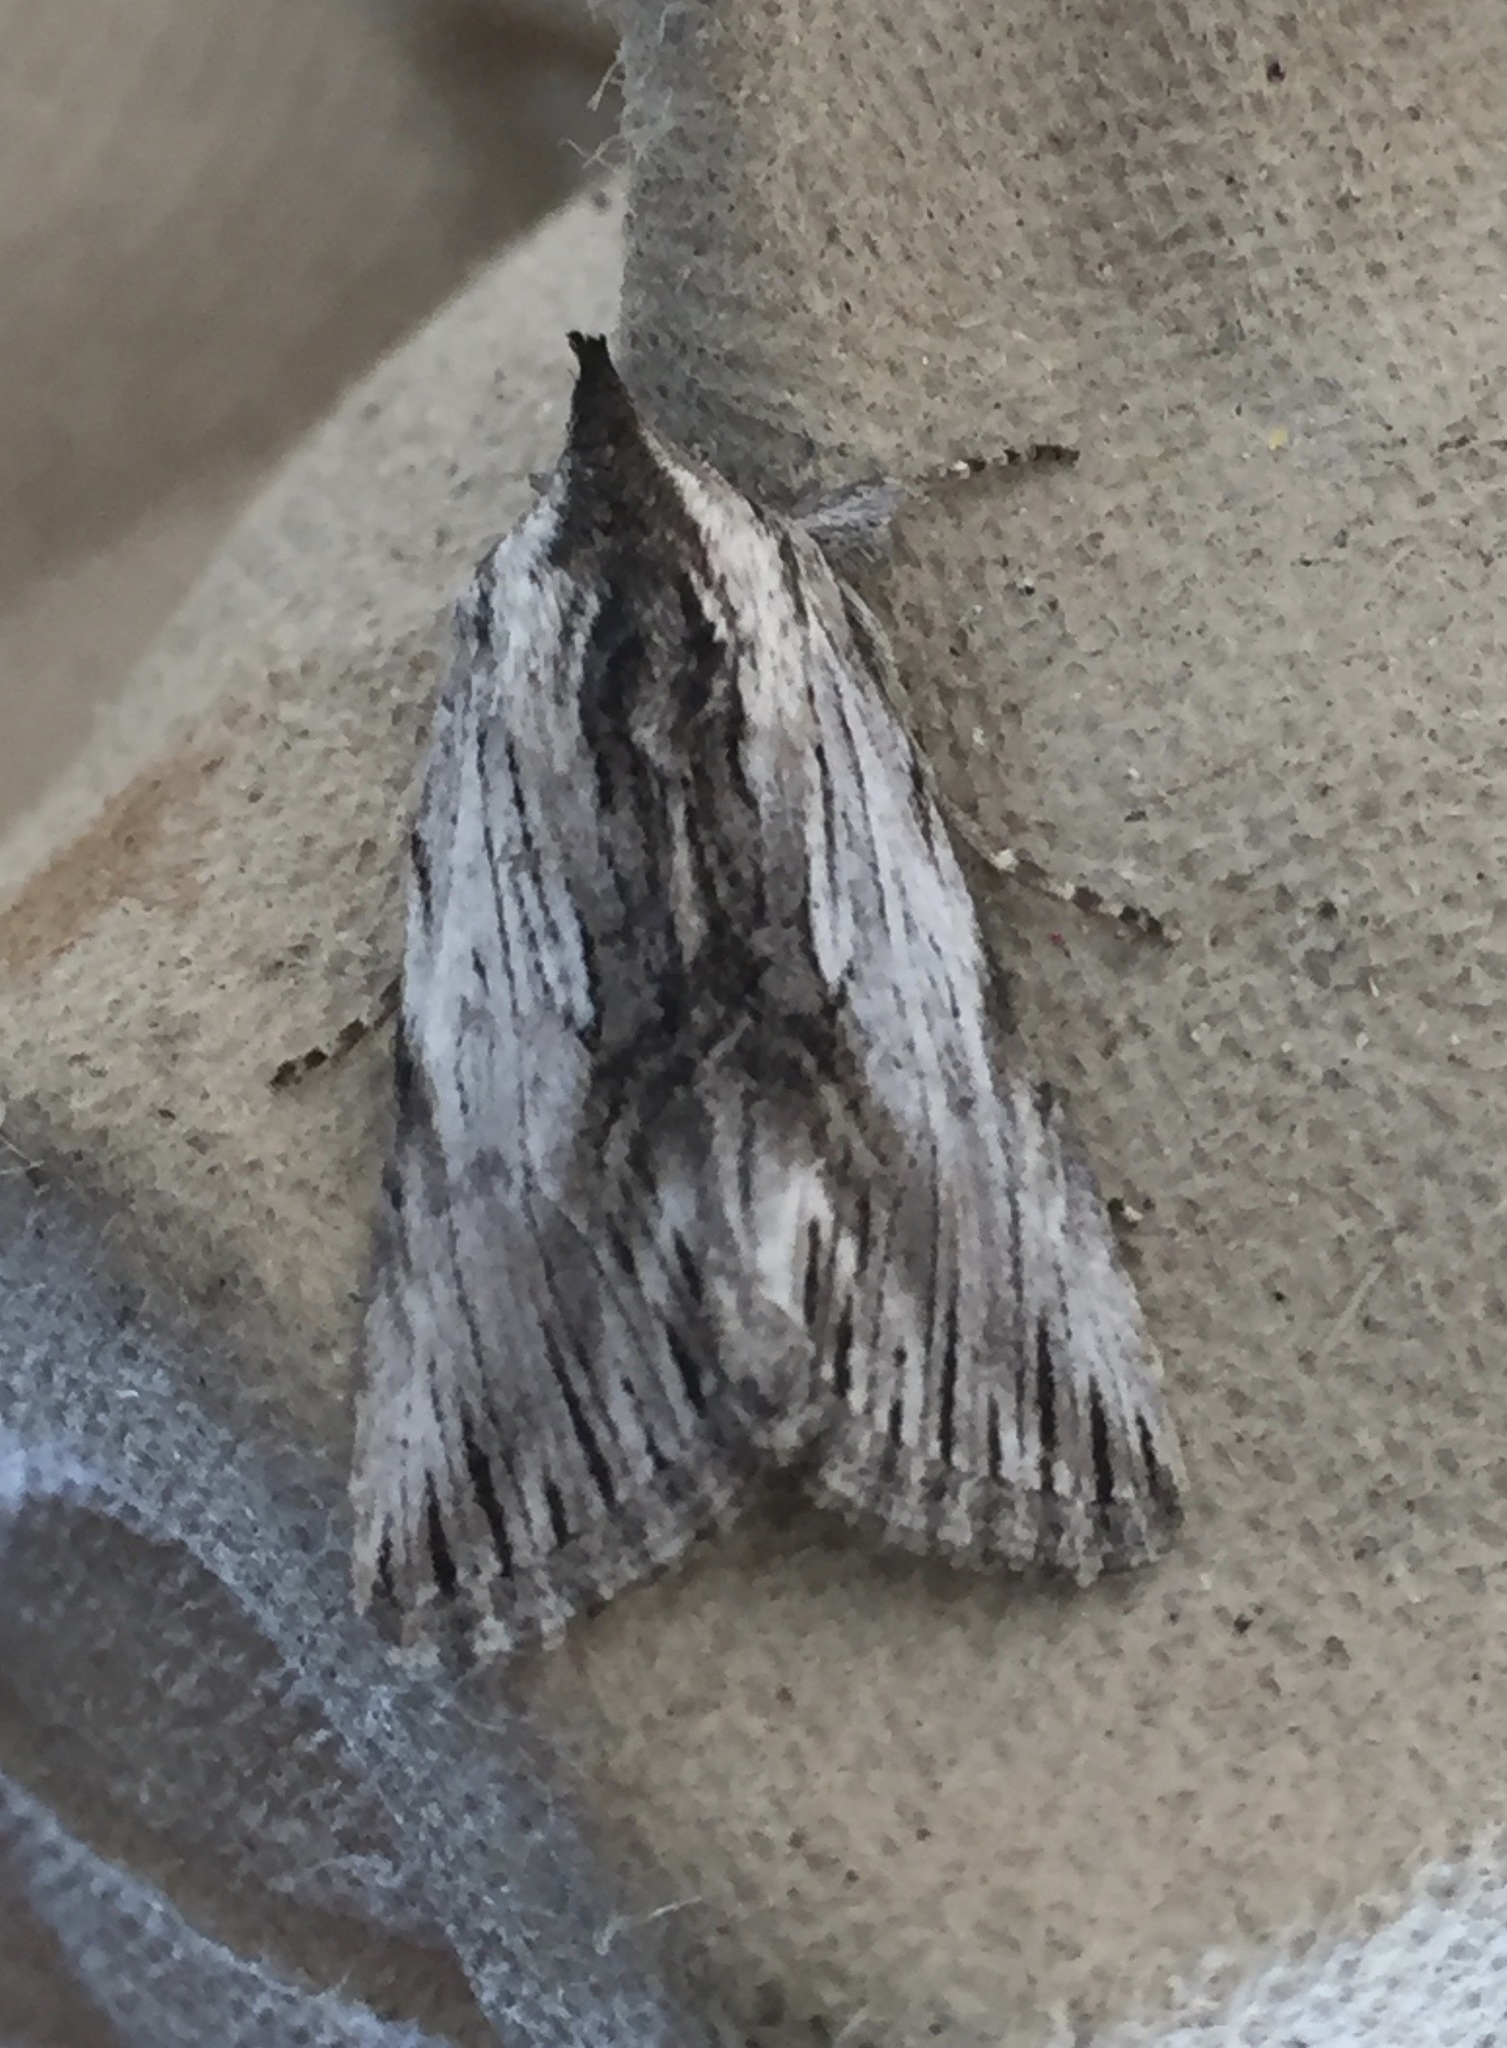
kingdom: Animalia
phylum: Arthropoda
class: Insecta
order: Lepidoptera
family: Noctuidae
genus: Calophasia
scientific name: Calophasia platyptera
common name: Antirrhinum brocade
